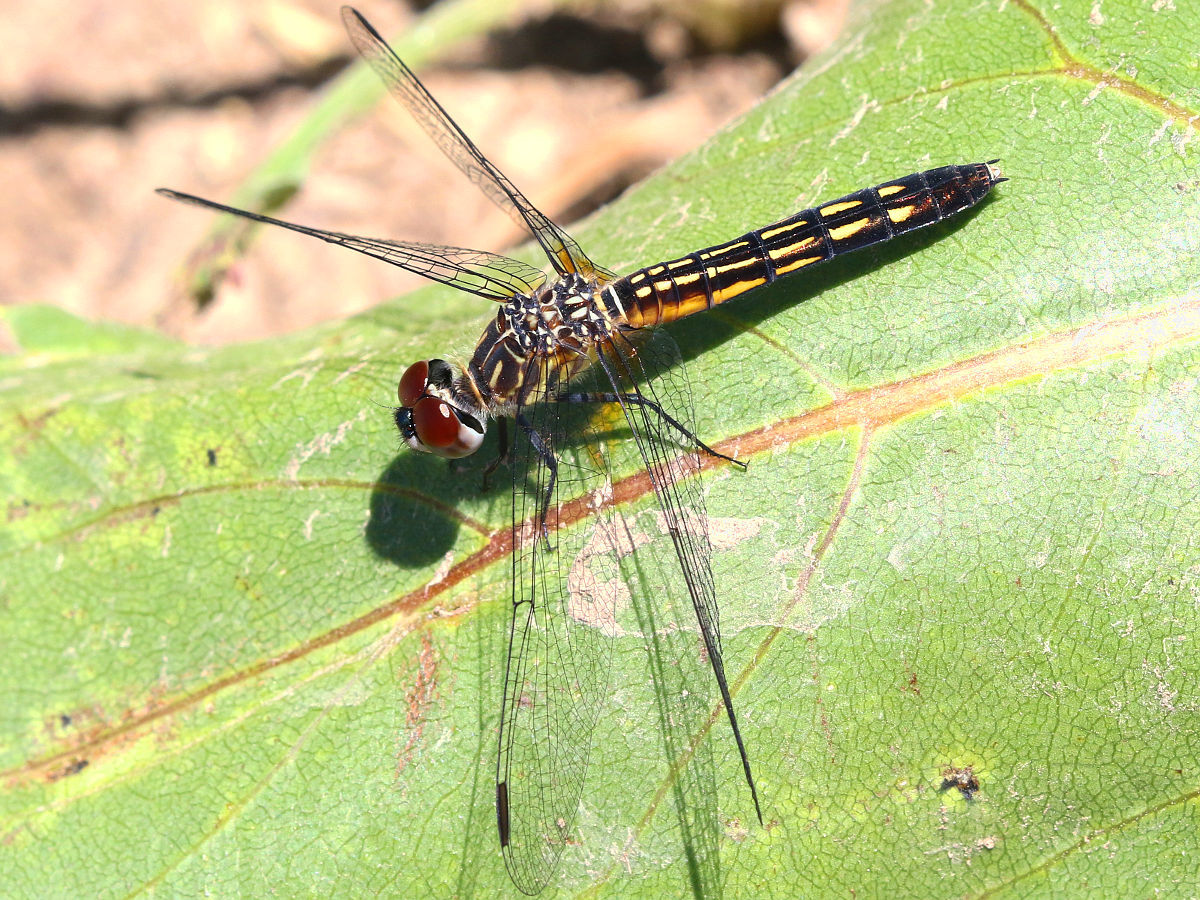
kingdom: Animalia
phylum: Arthropoda
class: Insecta
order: Odonata
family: Libellulidae
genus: Pachydiplax
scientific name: Pachydiplax longipennis
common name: Blue dasher
